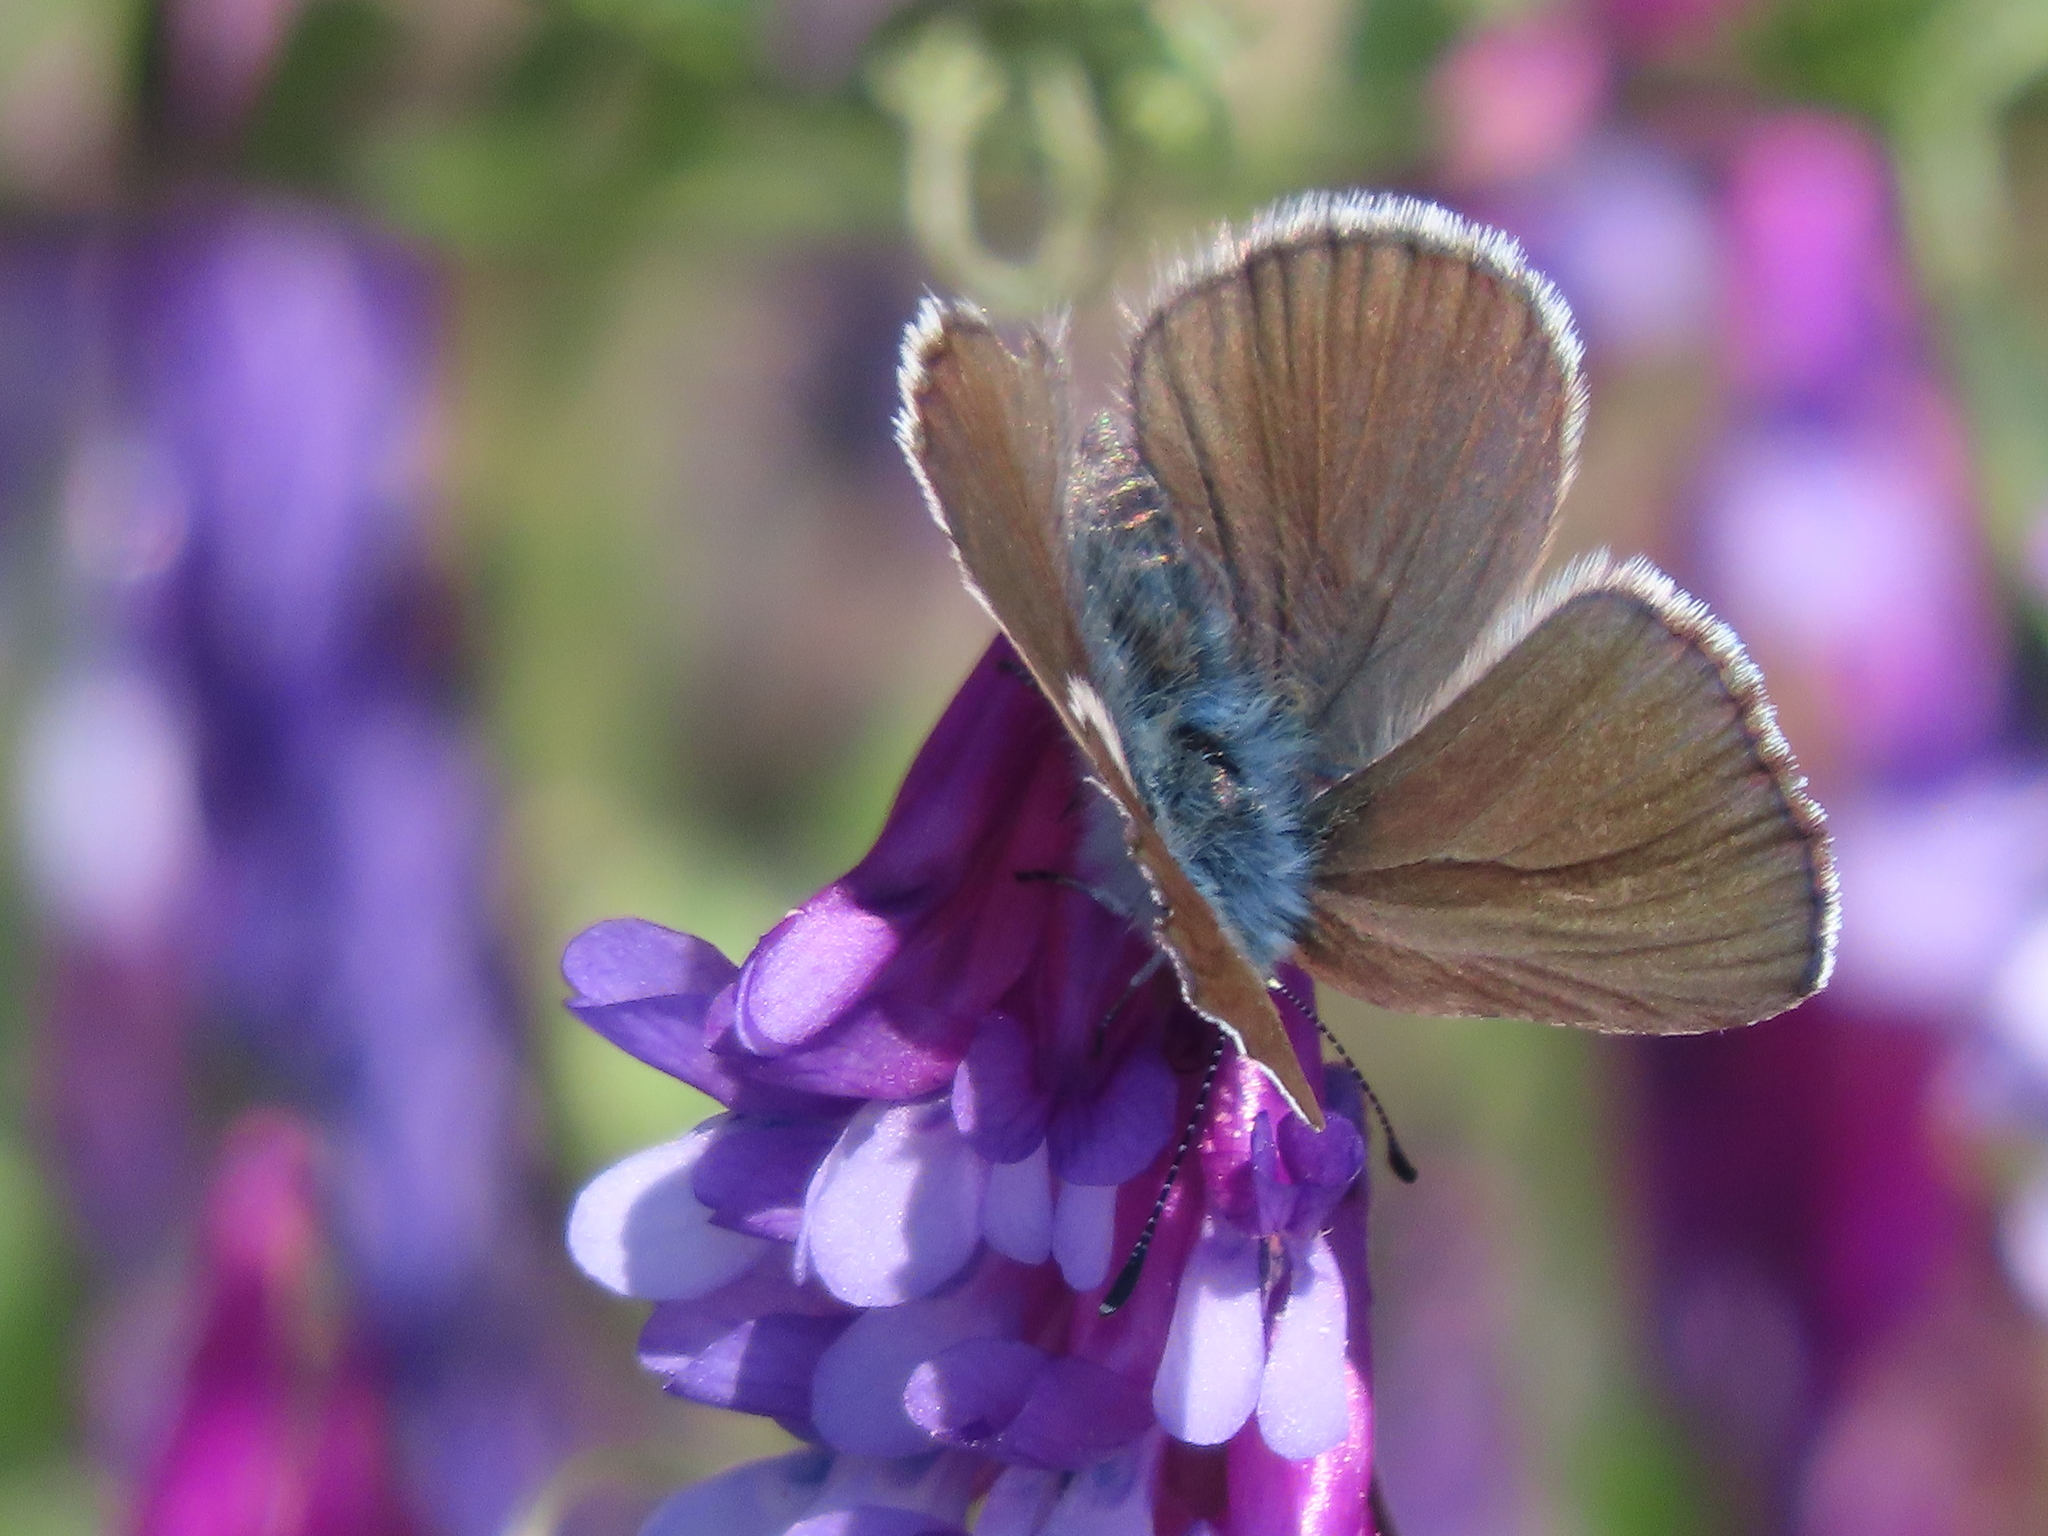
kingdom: Animalia
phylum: Arthropoda
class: Insecta
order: Lepidoptera
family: Lycaenidae
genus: Glaucopsyche
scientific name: Glaucopsyche lygdamus
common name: Silvery blue
